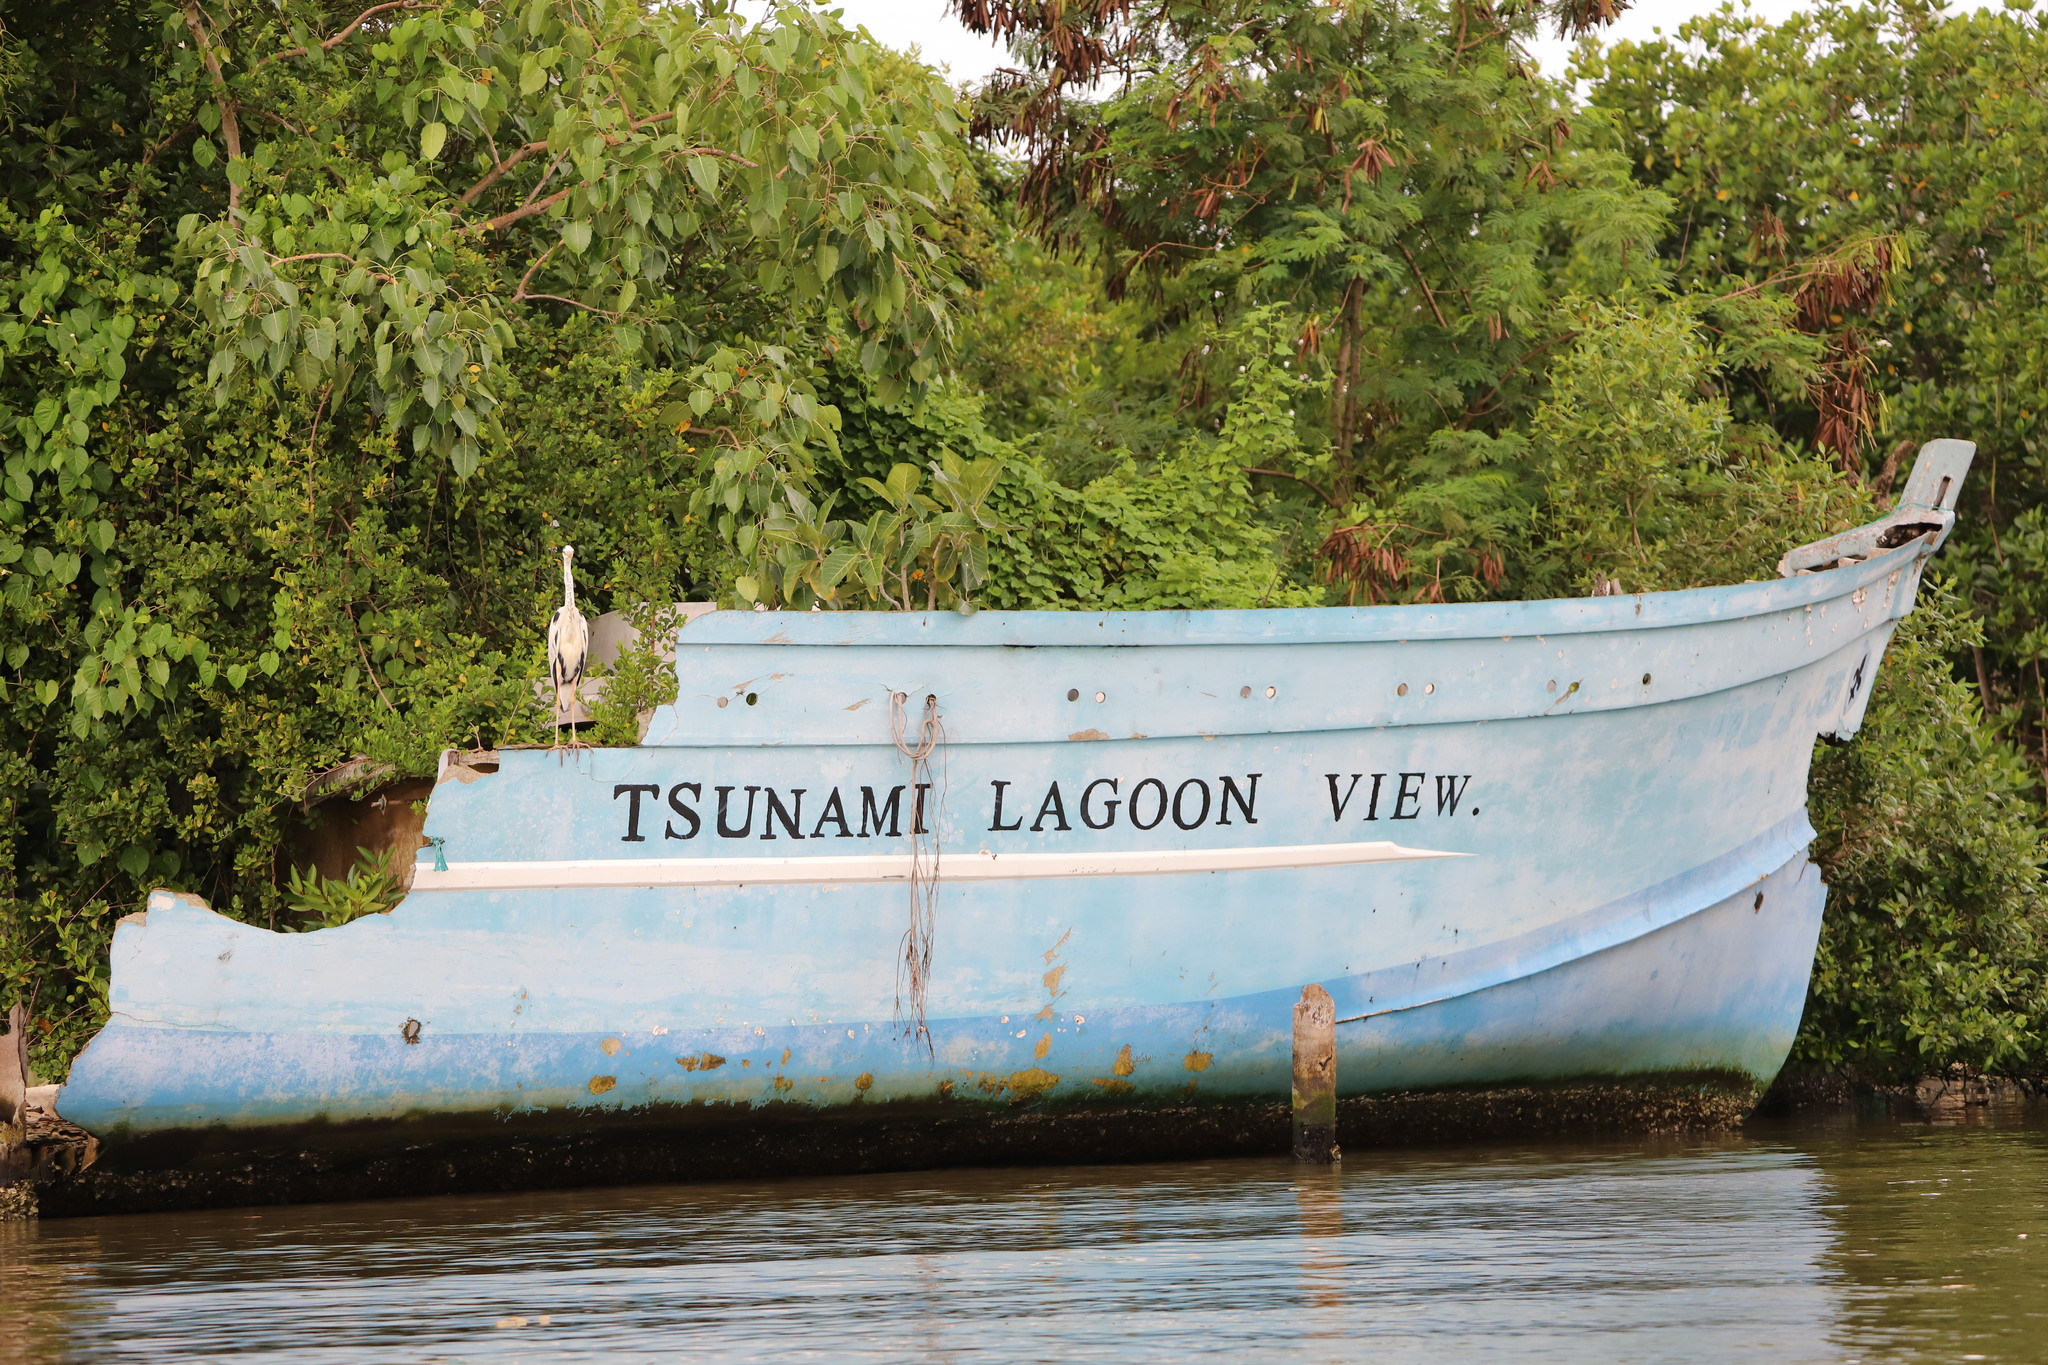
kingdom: Animalia
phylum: Chordata
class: Aves
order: Pelecaniformes
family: Ardeidae
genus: Ardea
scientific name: Ardea cinerea
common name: Grey heron
